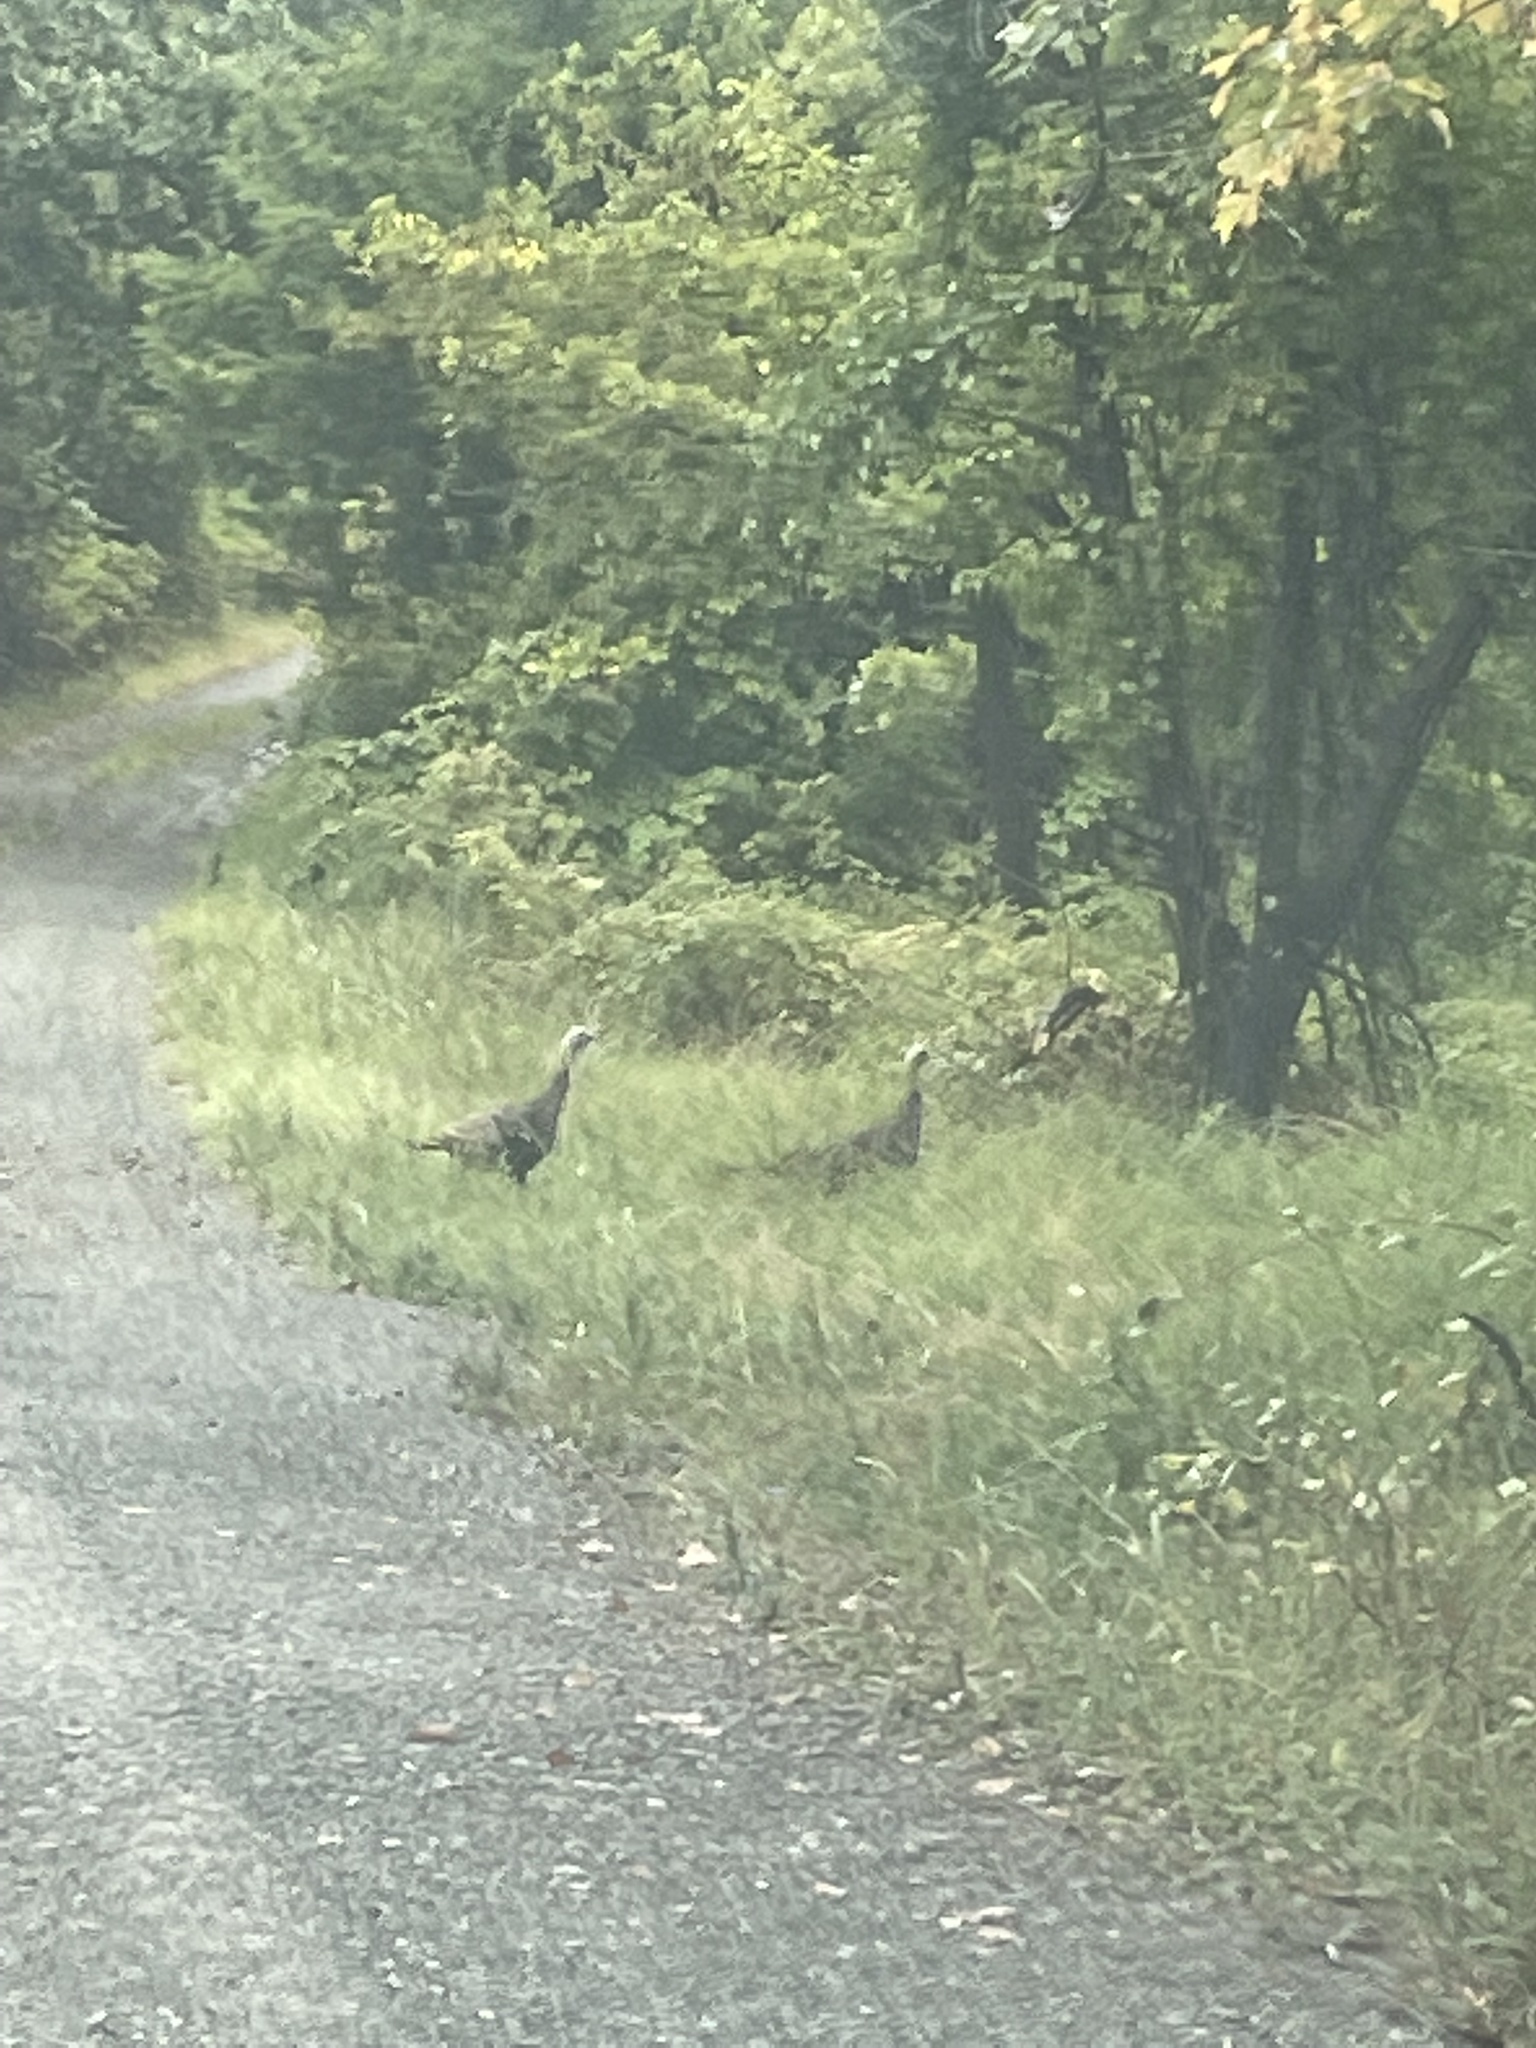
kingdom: Animalia
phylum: Chordata
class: Aves
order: Galliformes
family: Phasianidae
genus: Meleagris
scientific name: Meleagris gallopavo
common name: Wild turkey
